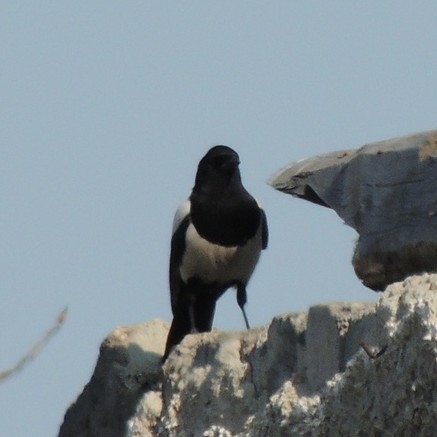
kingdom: Animalia
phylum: Chordata
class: Aves
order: Passeriformes
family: Corvidae
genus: Pica
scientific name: Pica pica
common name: Eurasian magpie
